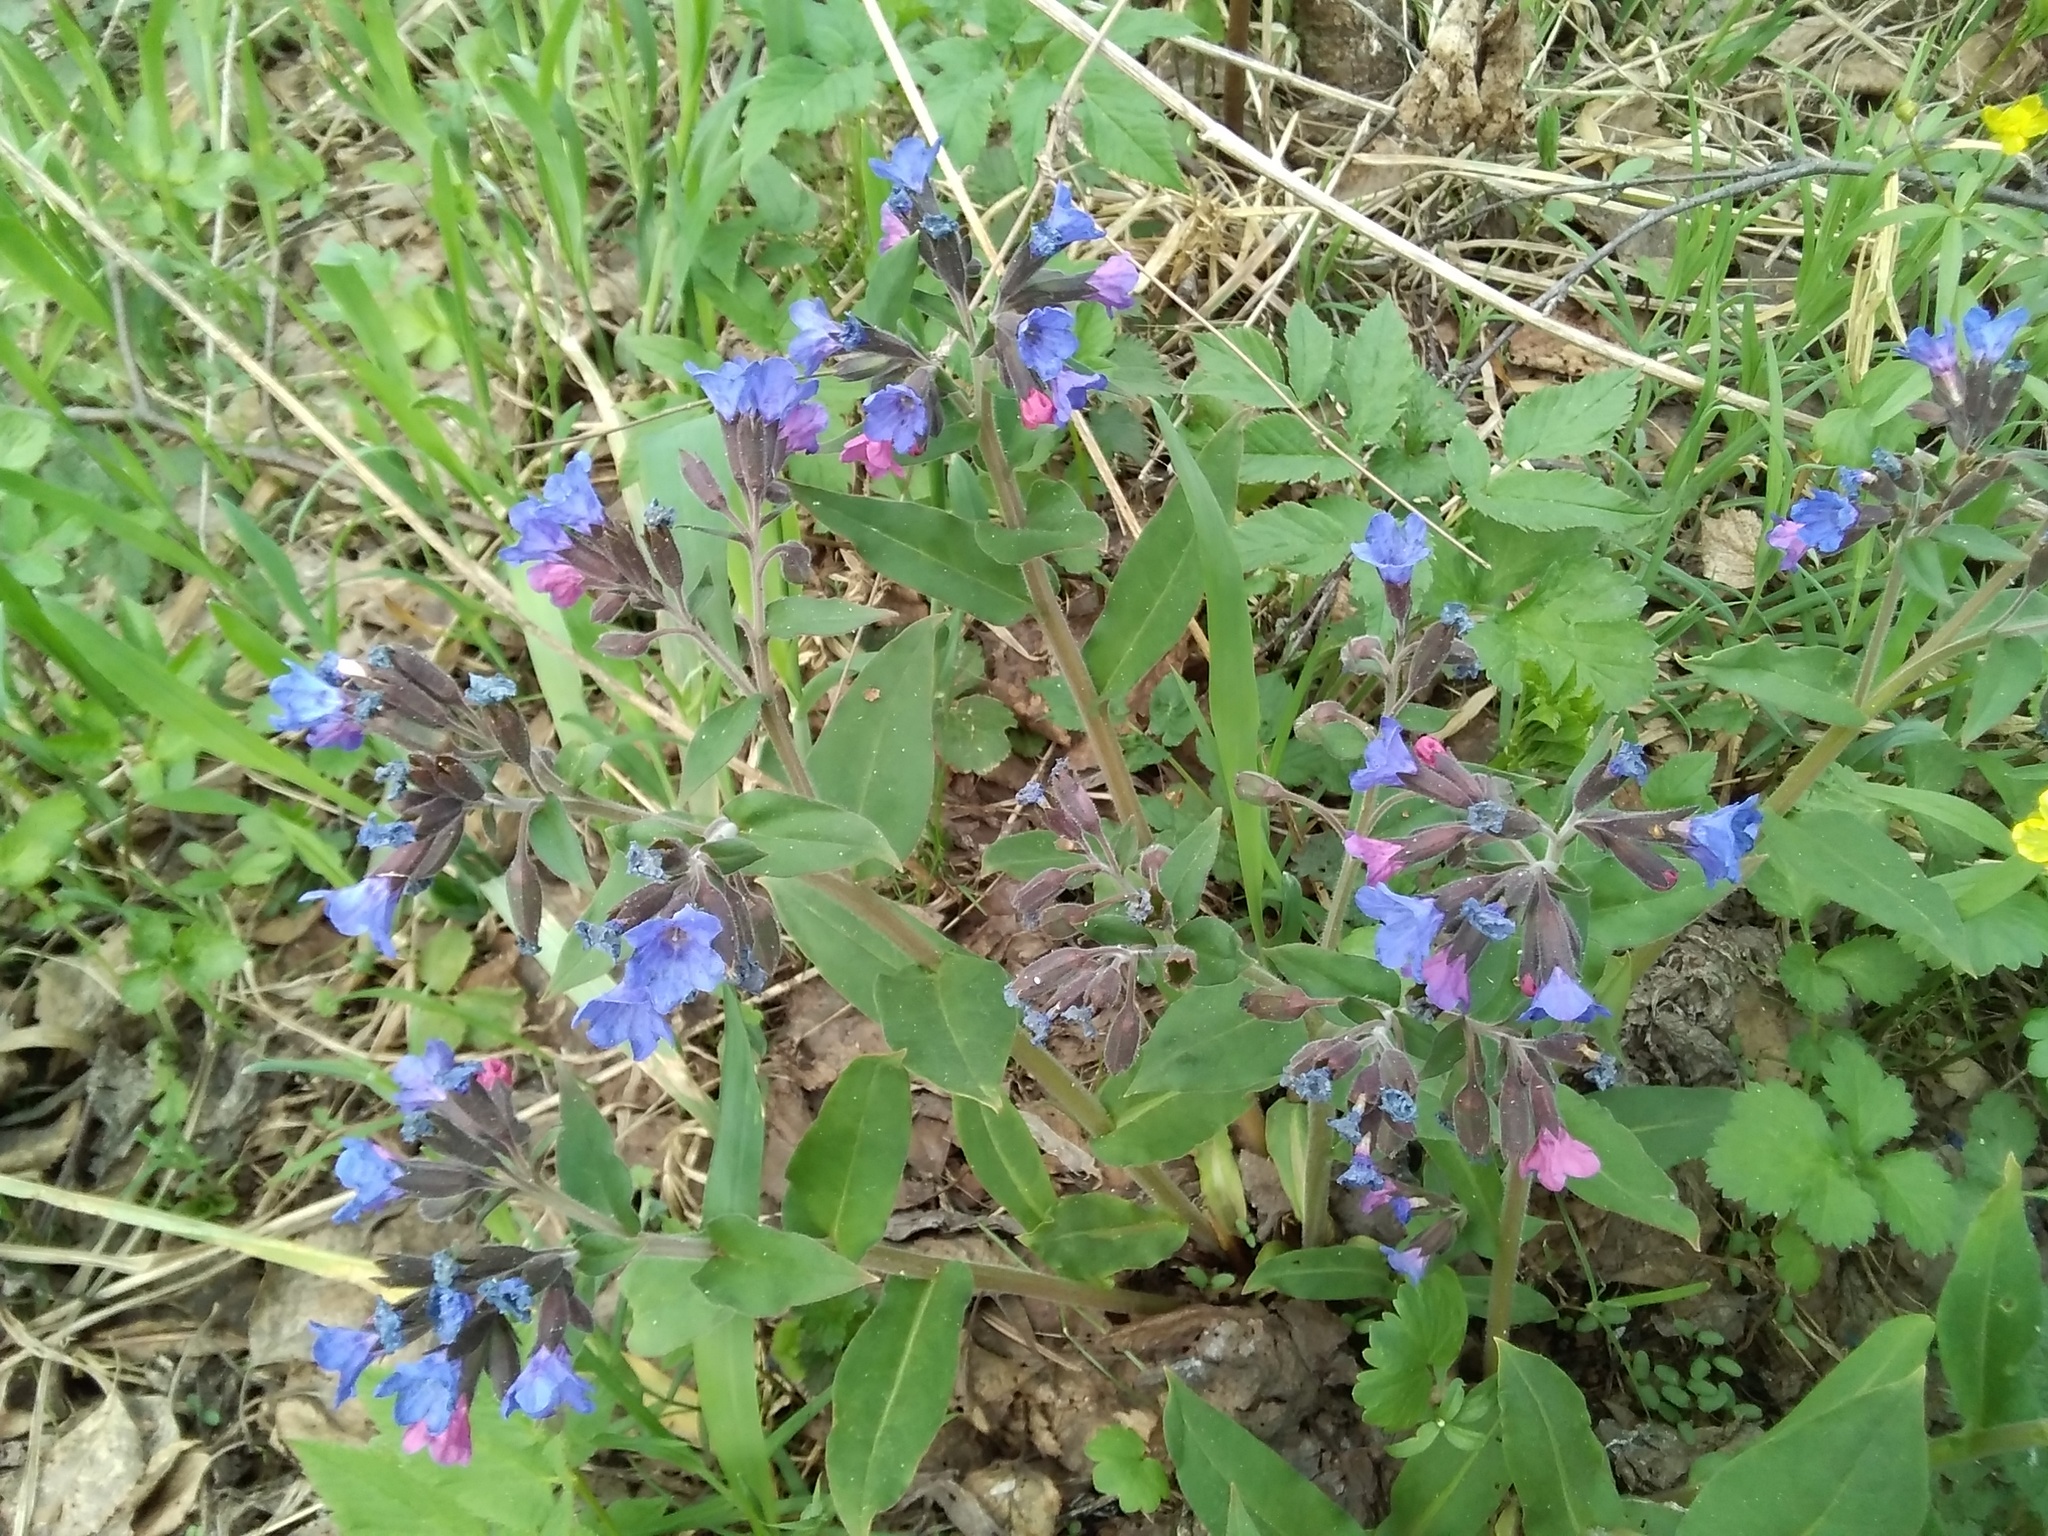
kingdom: Plantae
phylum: Tracheophyta
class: Magnoliopsida
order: Boraginales
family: Boraginaceae
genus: Pulmonaria
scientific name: Pulmonaria mollis
